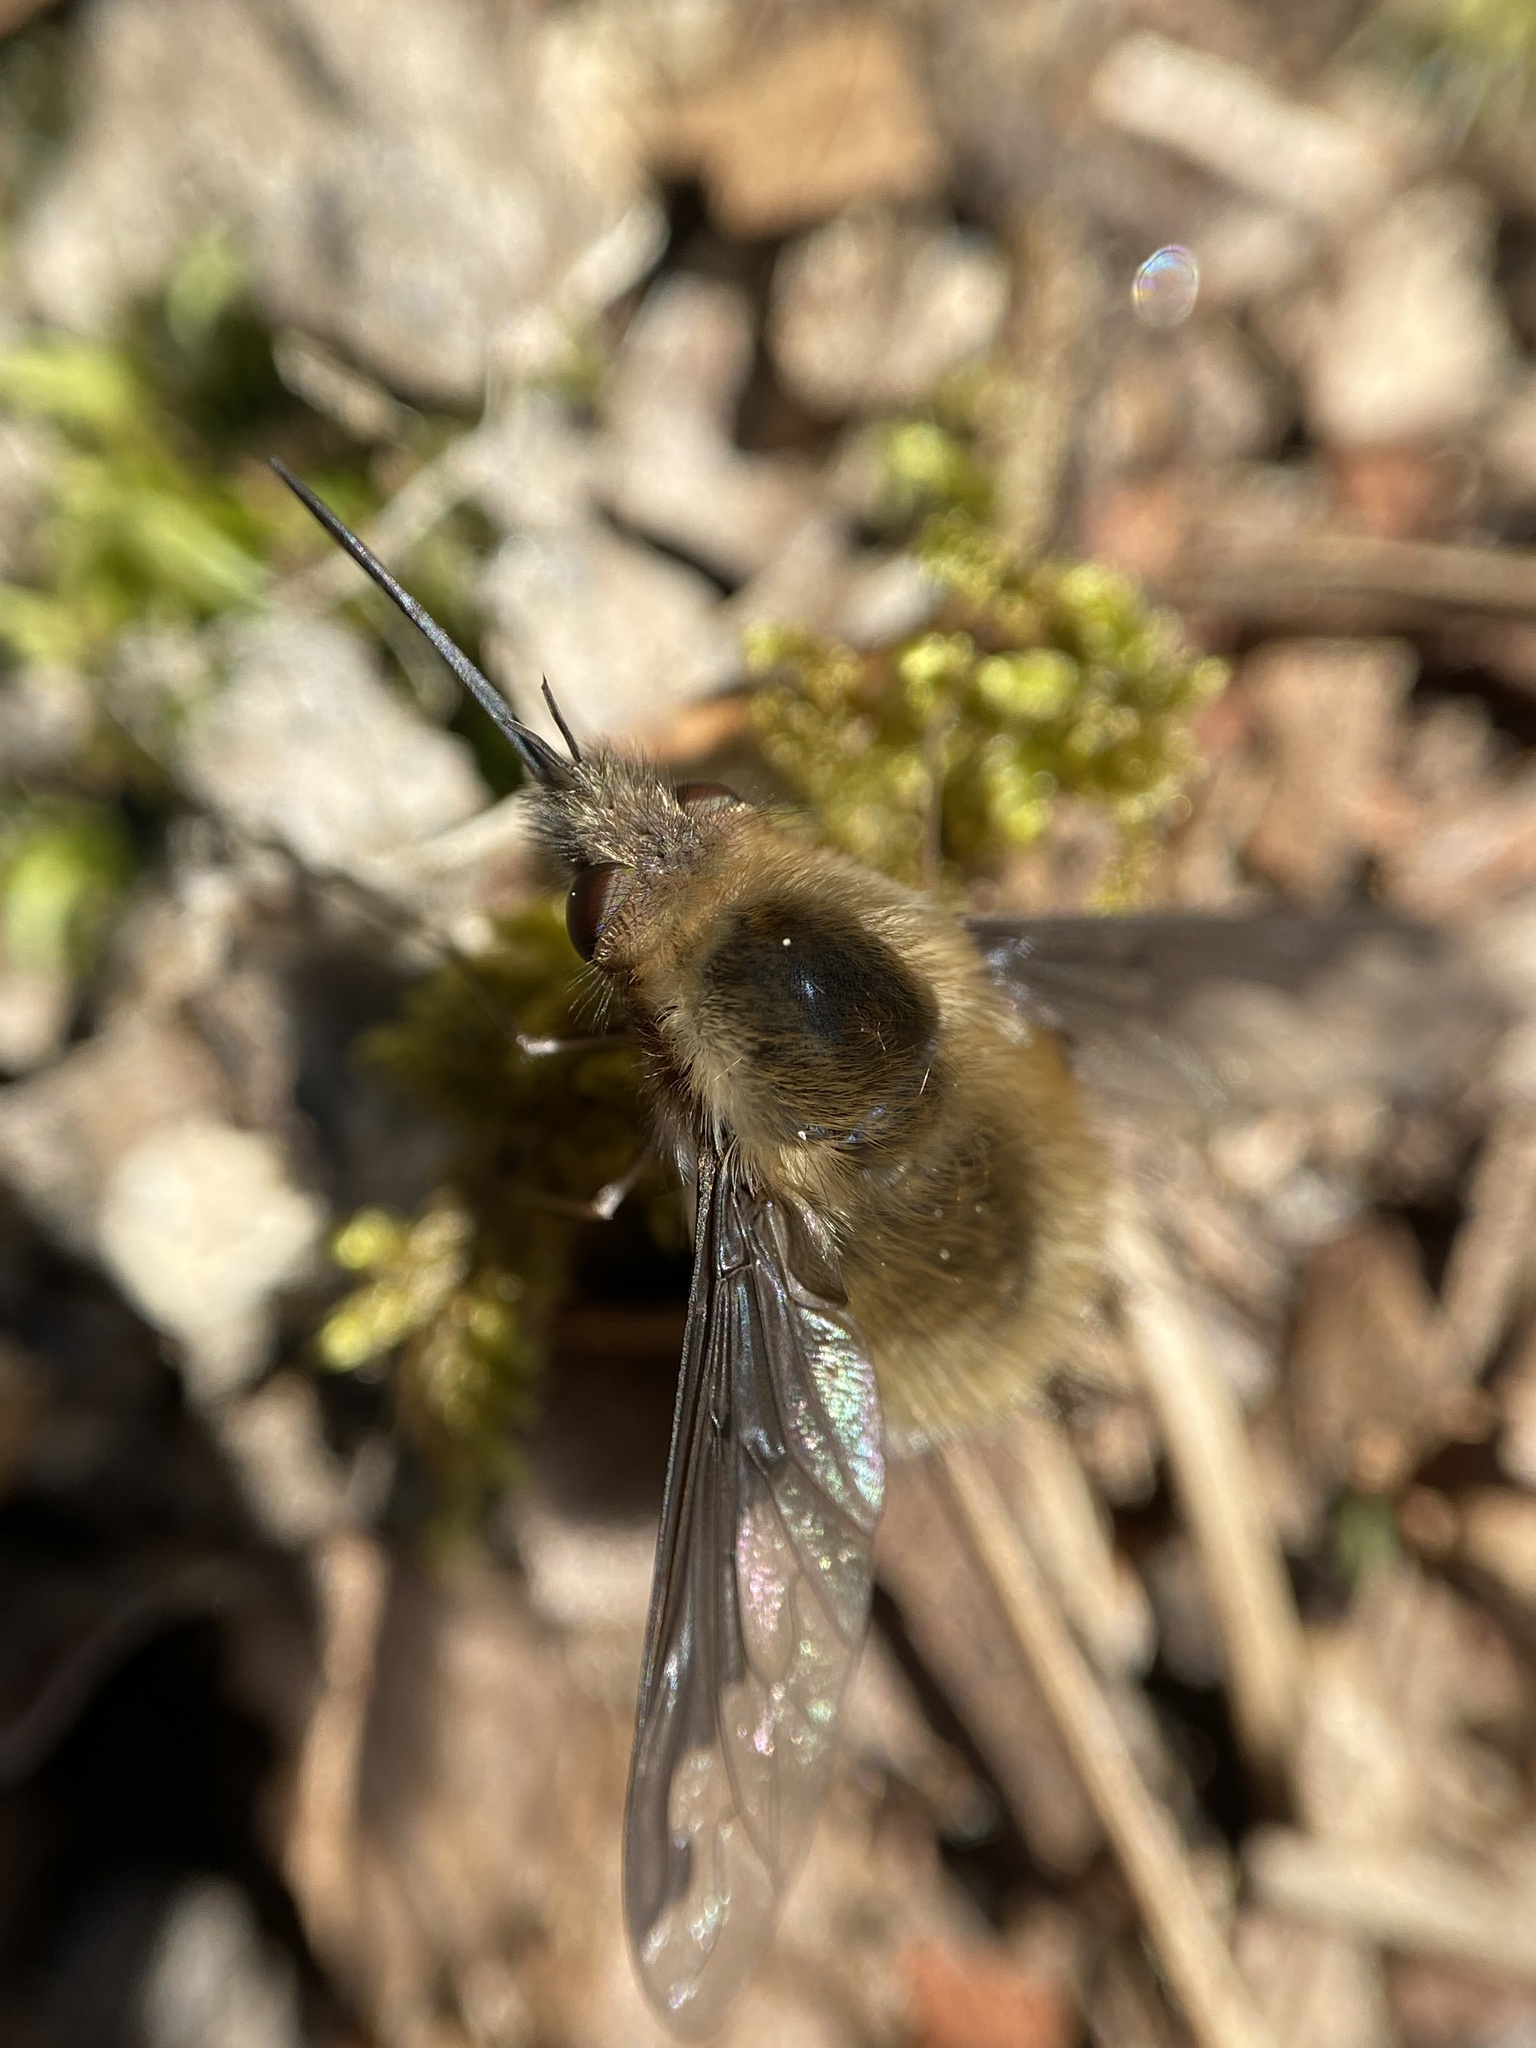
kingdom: Animalia
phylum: Arthropoda
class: Insecta
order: Diptera
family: Bombyliidae
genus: Bombylius
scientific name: Bombylius major
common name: Bee fly
